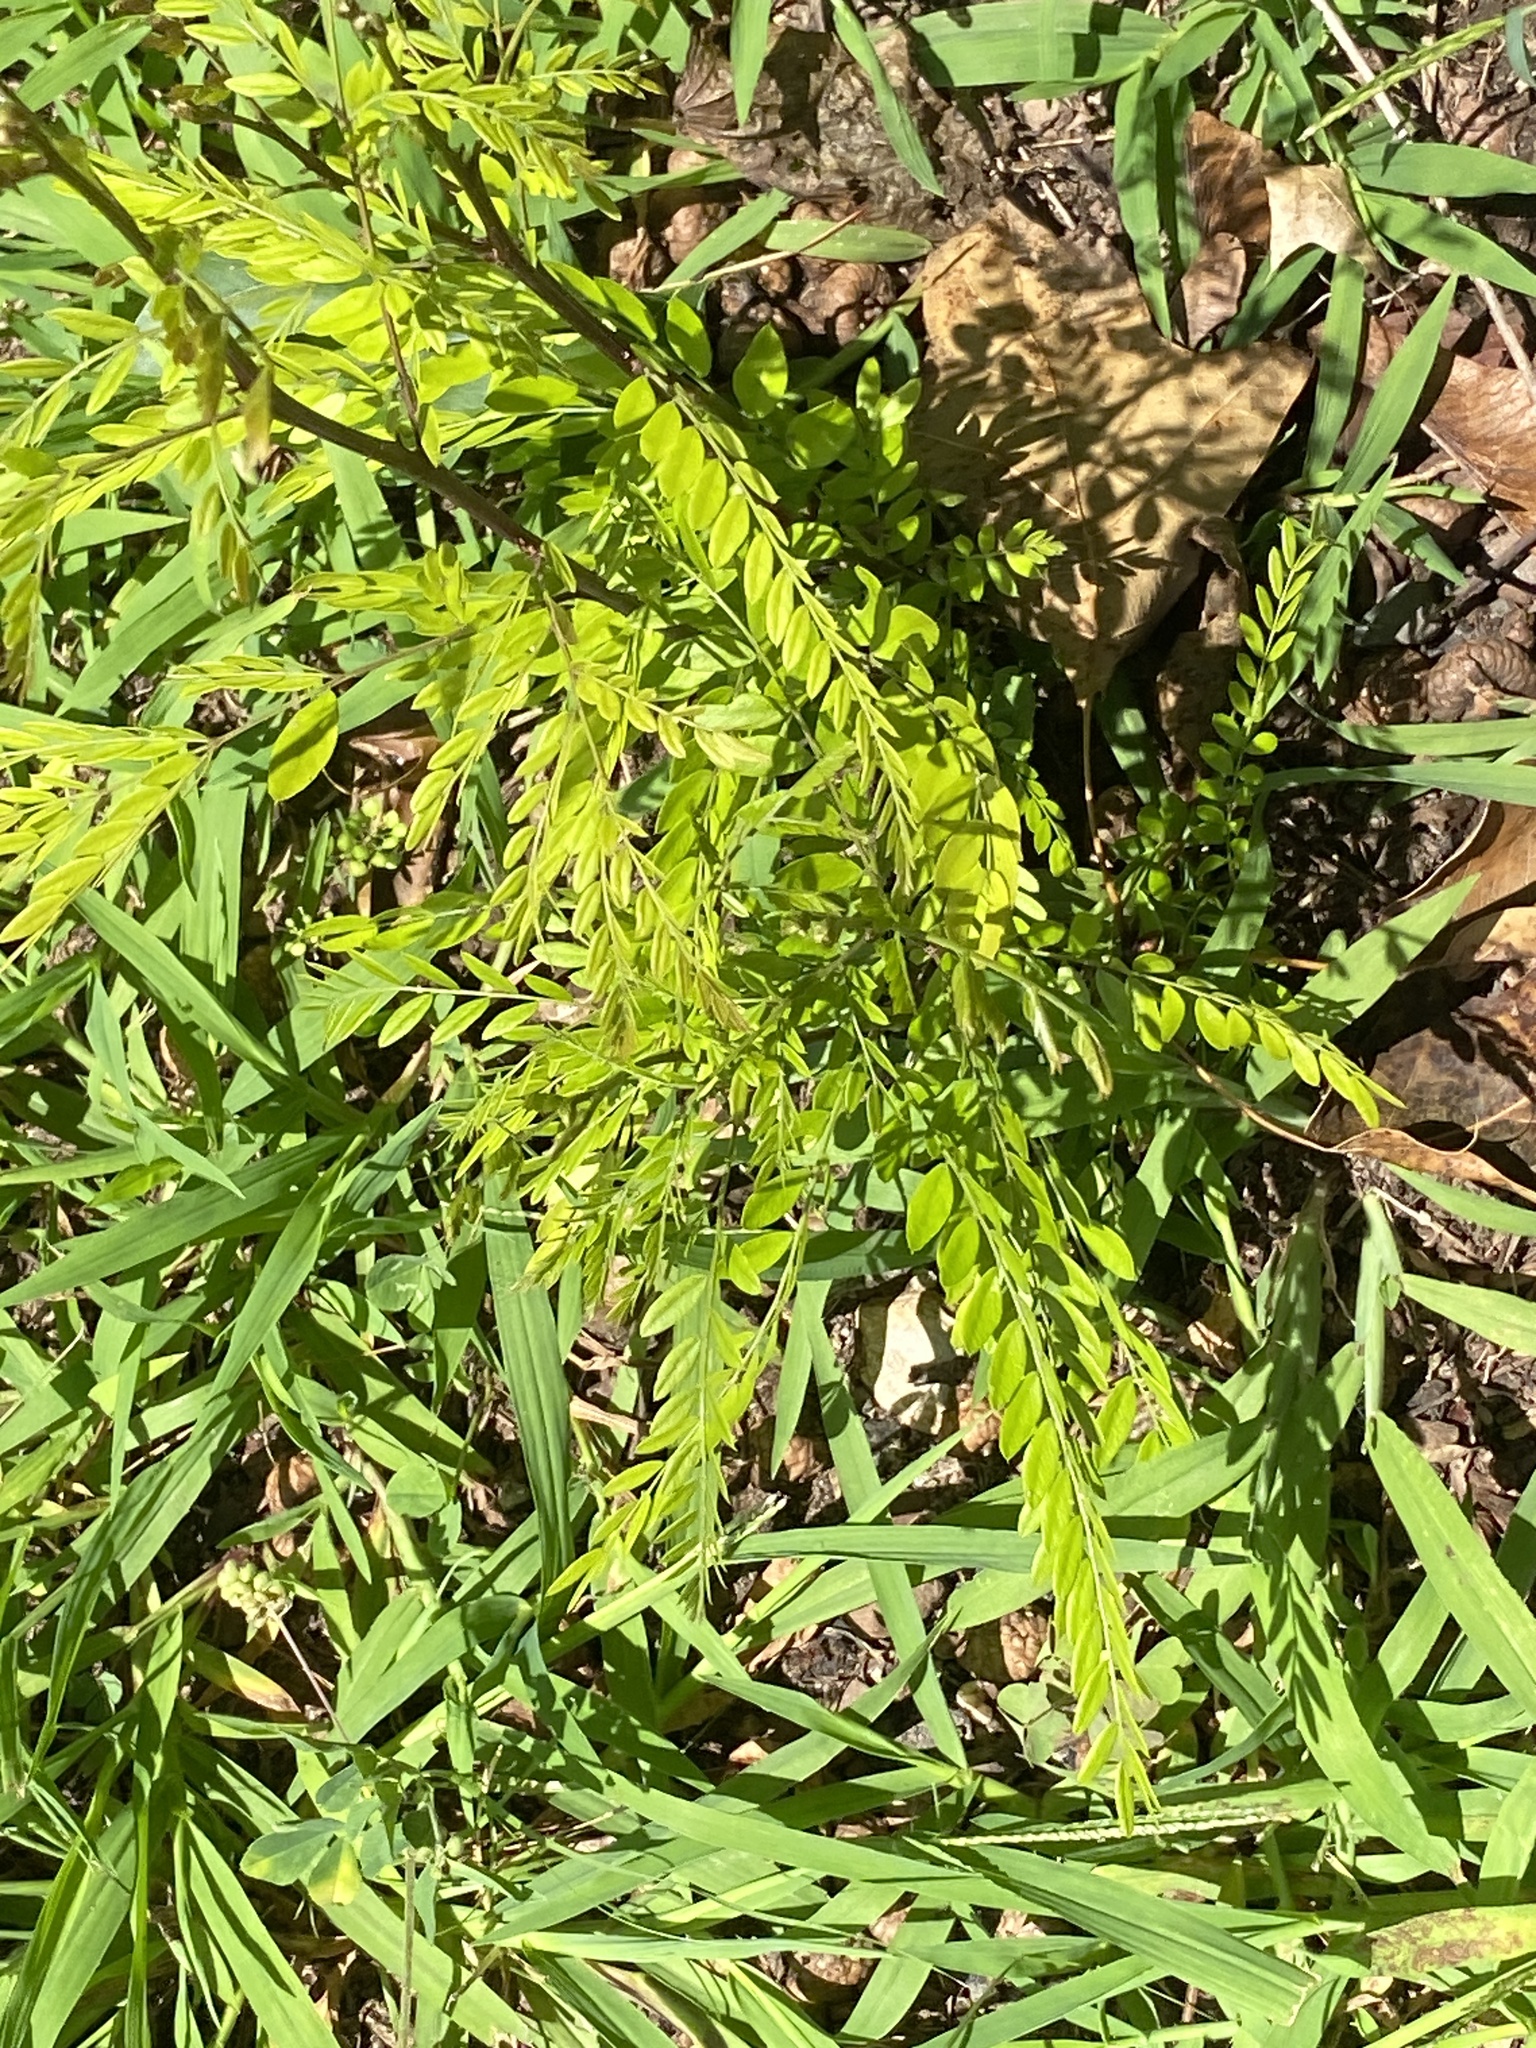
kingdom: Plantae
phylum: Tracheophyta
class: Magnoliopsida
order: Fabales
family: Fabaceae
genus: Gleditsia
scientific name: Gleditsia triacanthos
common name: Common honeylocust
